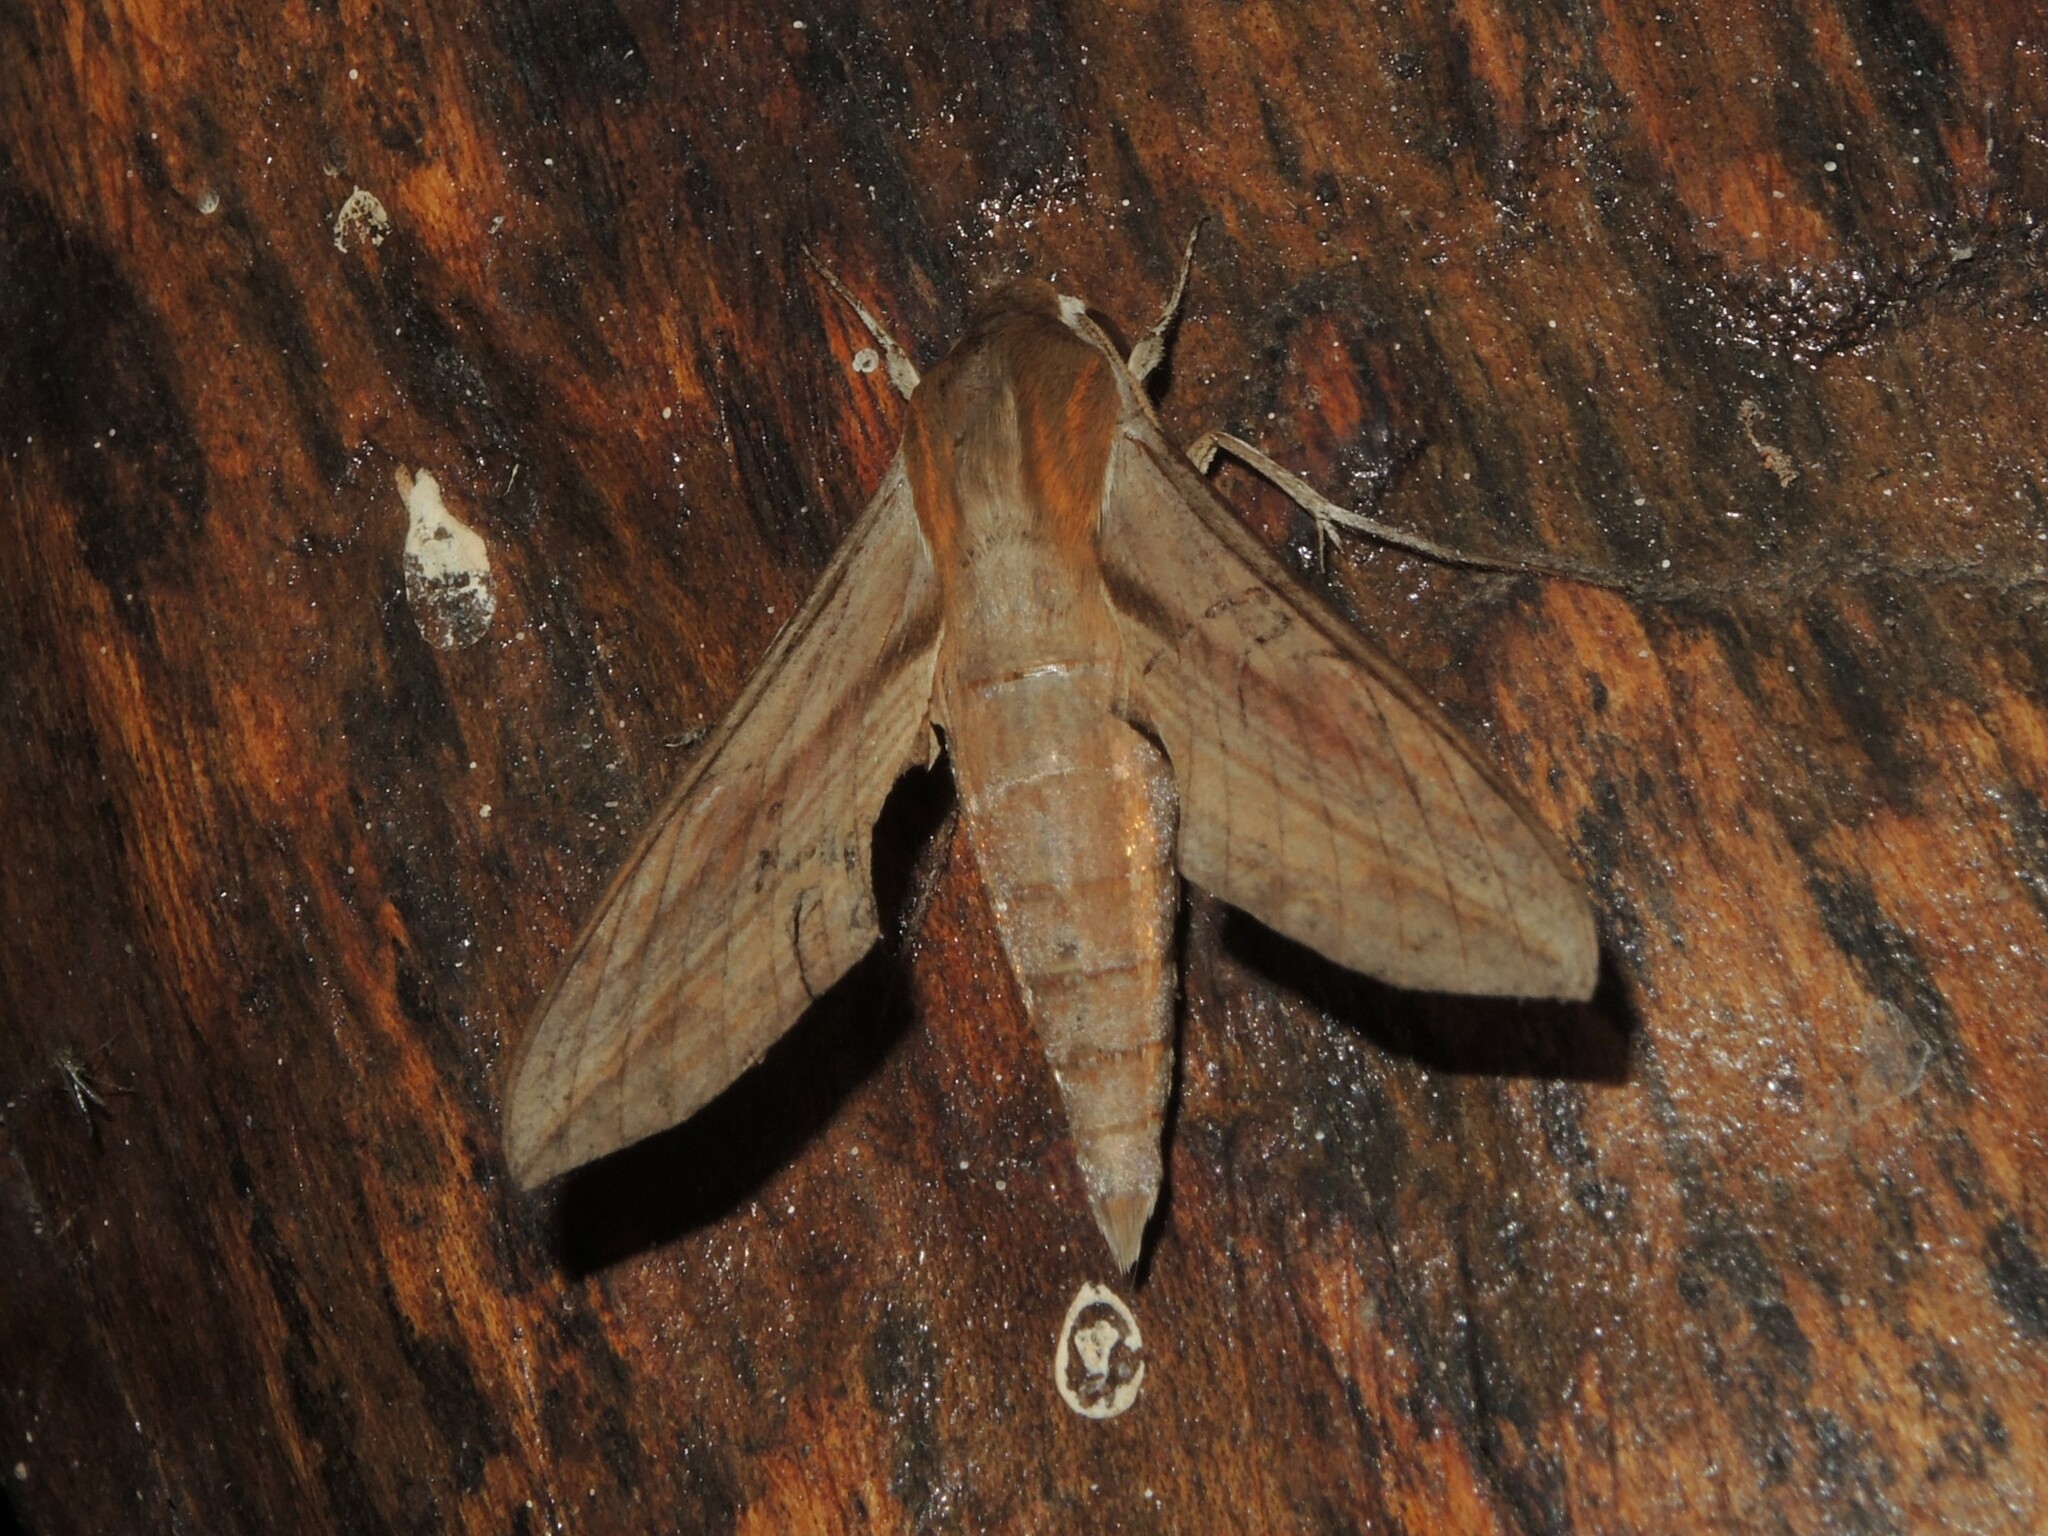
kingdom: Animalia
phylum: Arthropoda
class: Insecta
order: Lepidoptera
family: Sphingidae
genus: Hippotion
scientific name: Hippotion rosetta
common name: Vine hawk moth
